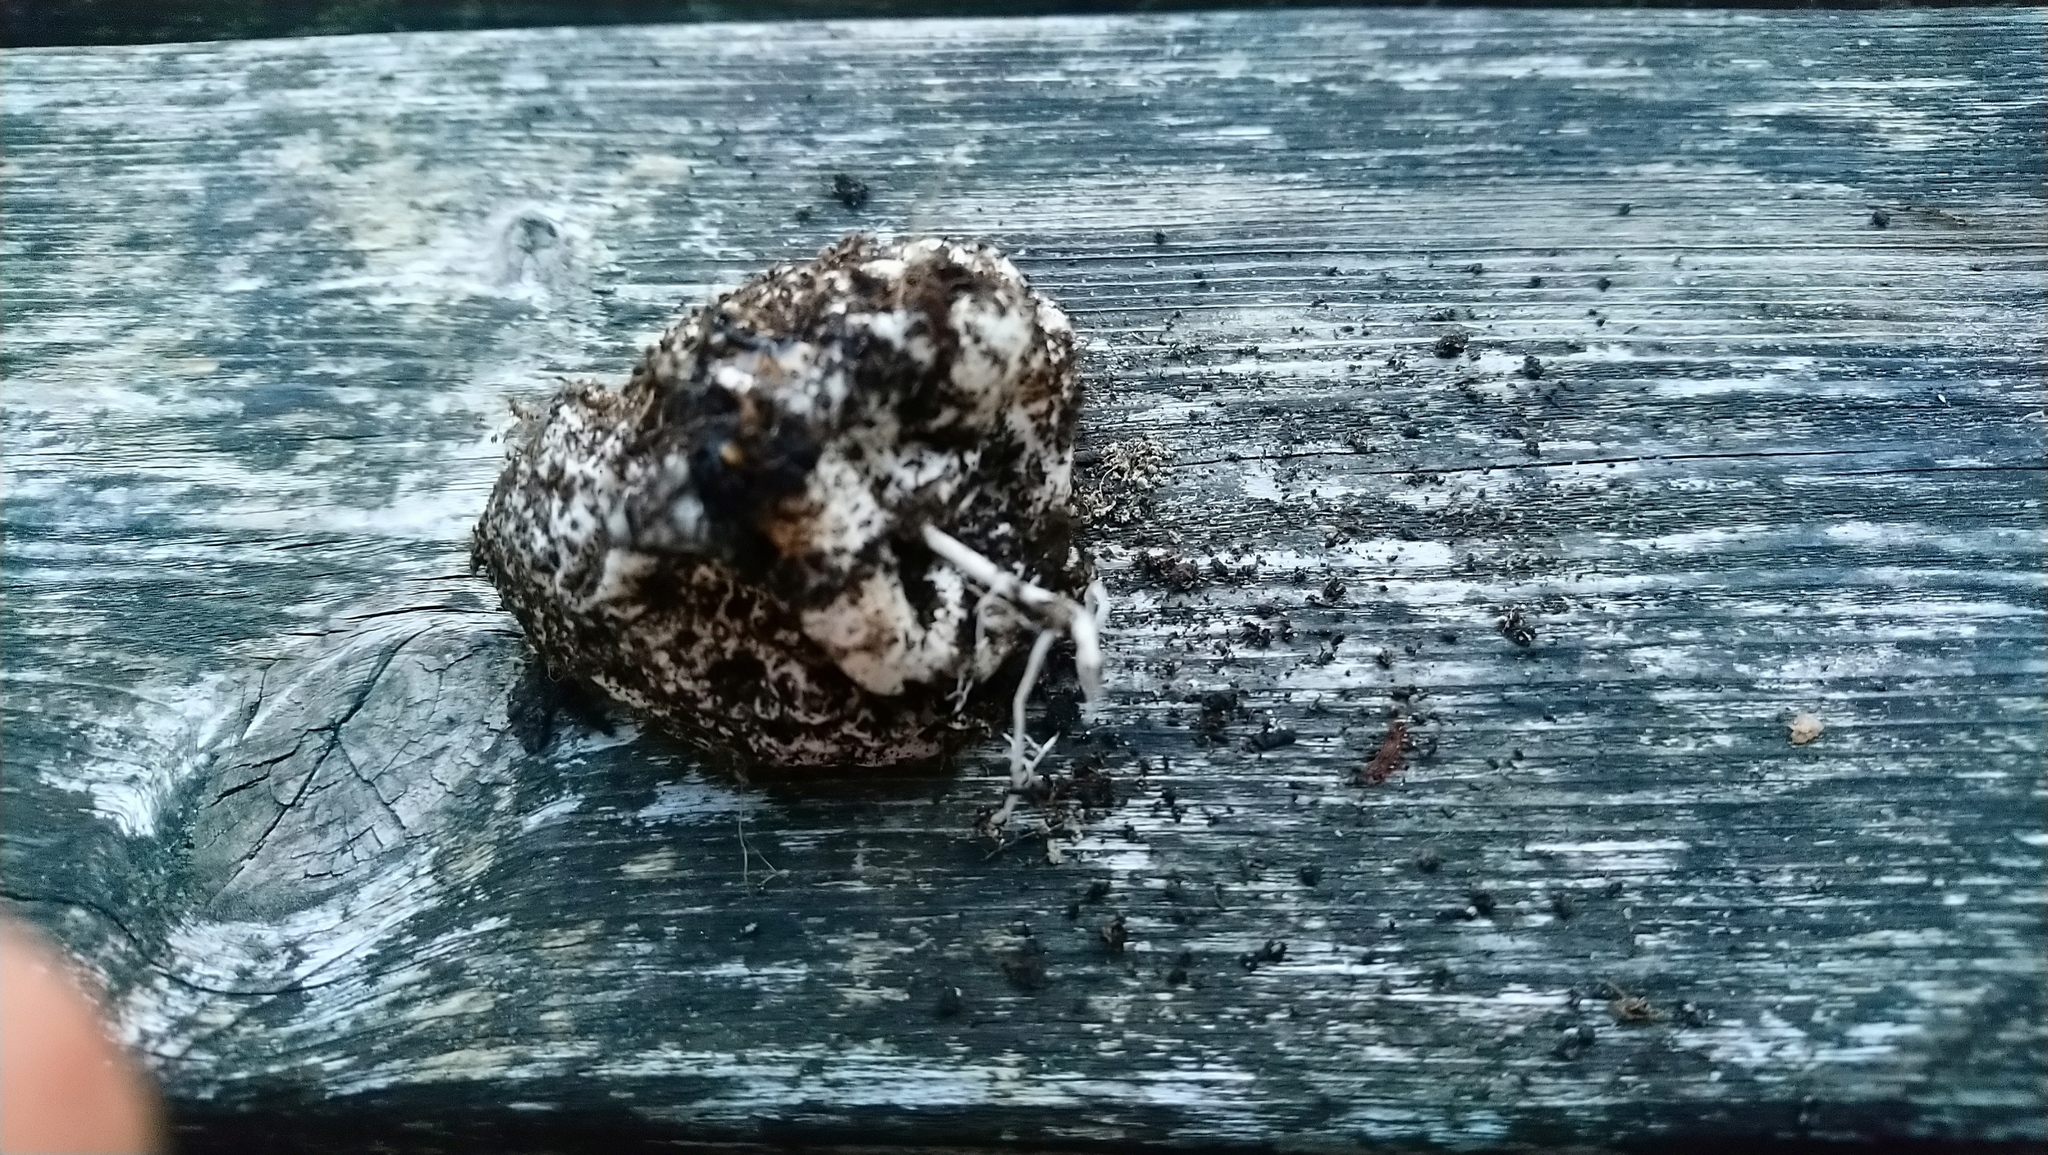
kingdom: Fungi
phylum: Basidiomycota
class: Agaricomycetes
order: Phallales
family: Phallaceae
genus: Phallus
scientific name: Phallus impudicus
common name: Common stinkhorn
